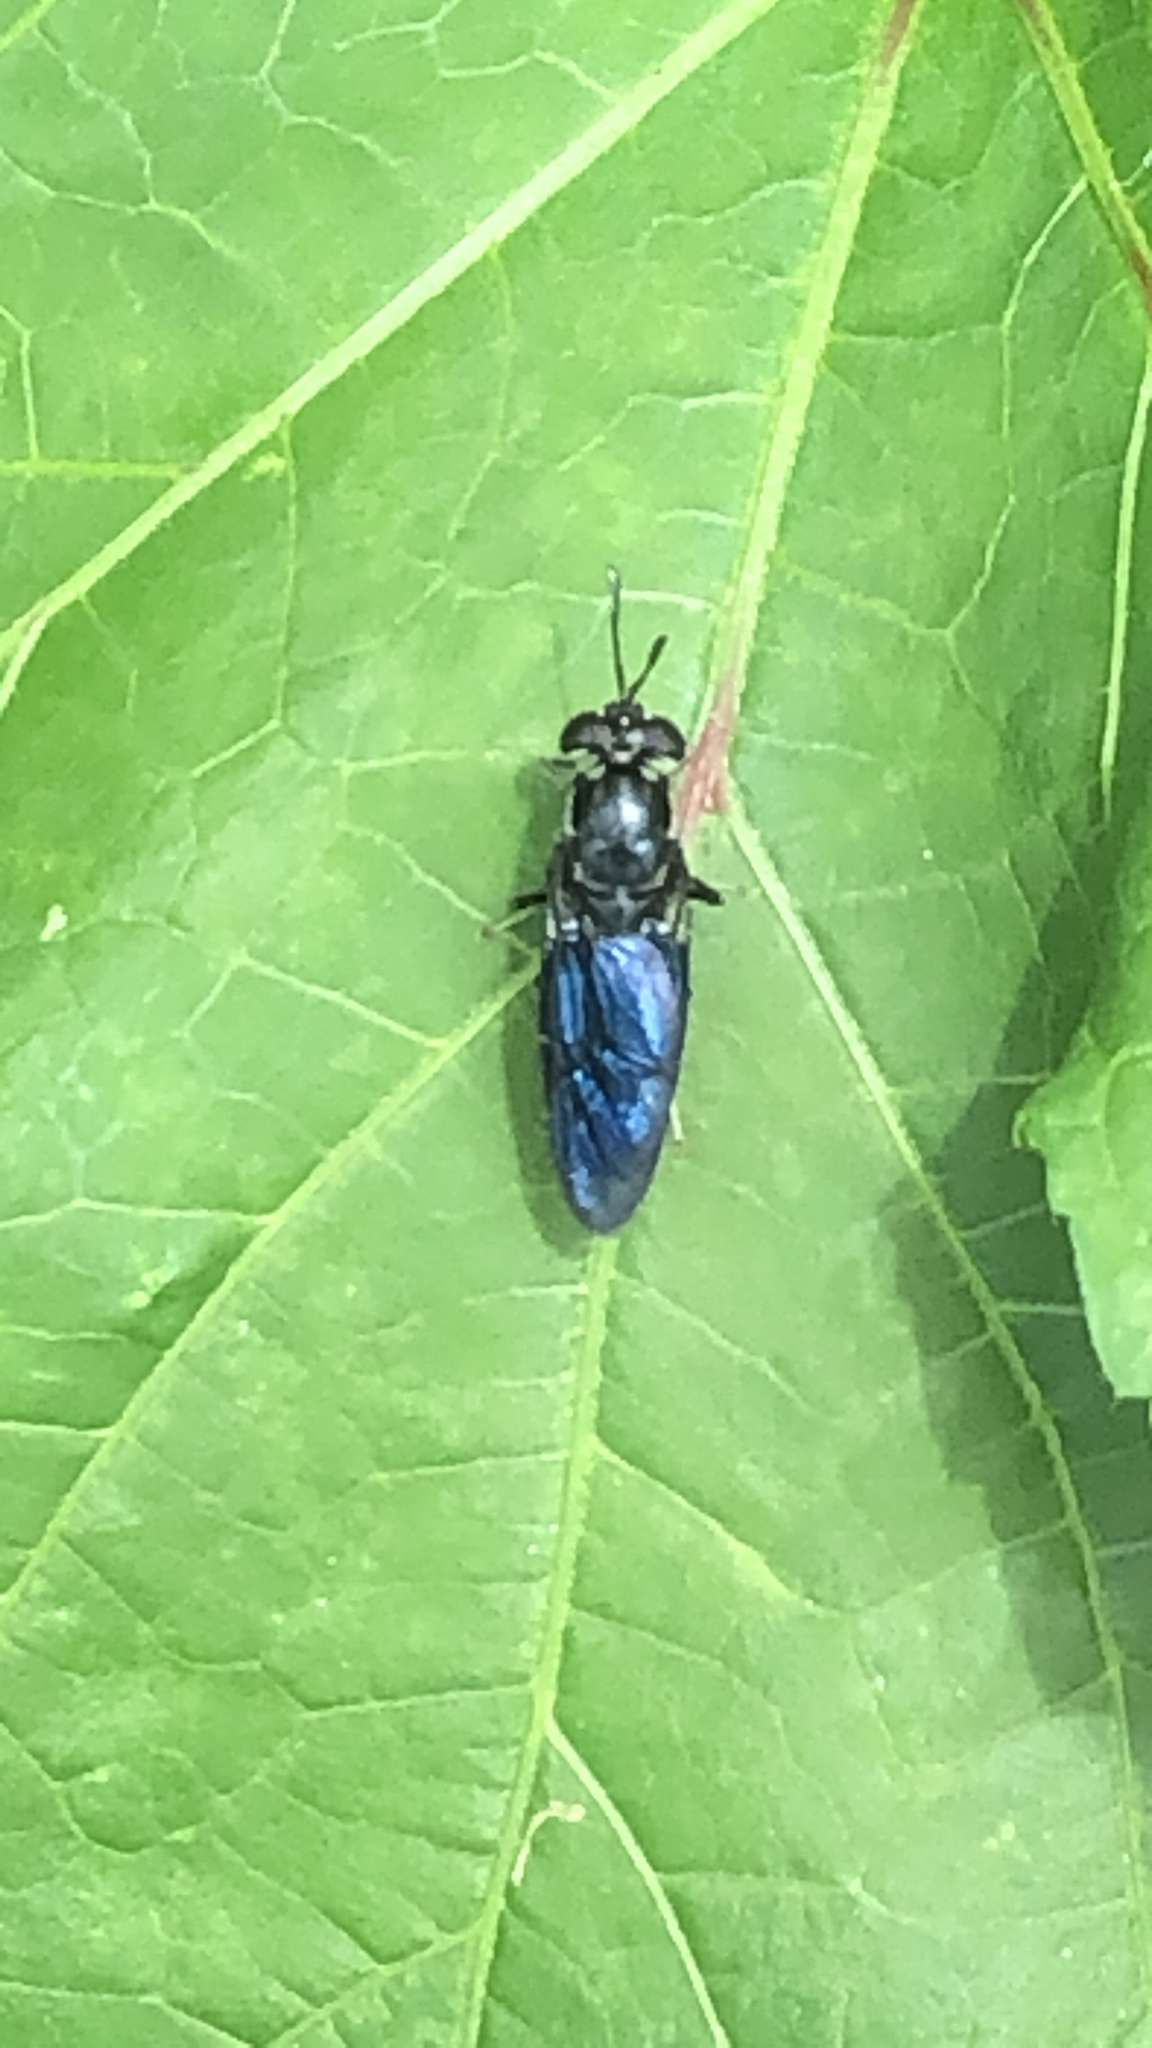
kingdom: Animalia
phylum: Arthropoda
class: Insecta
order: Diptera
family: Stratiomyidae
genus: Hermetia
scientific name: Hermetia illucens
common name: Black soldier fly
